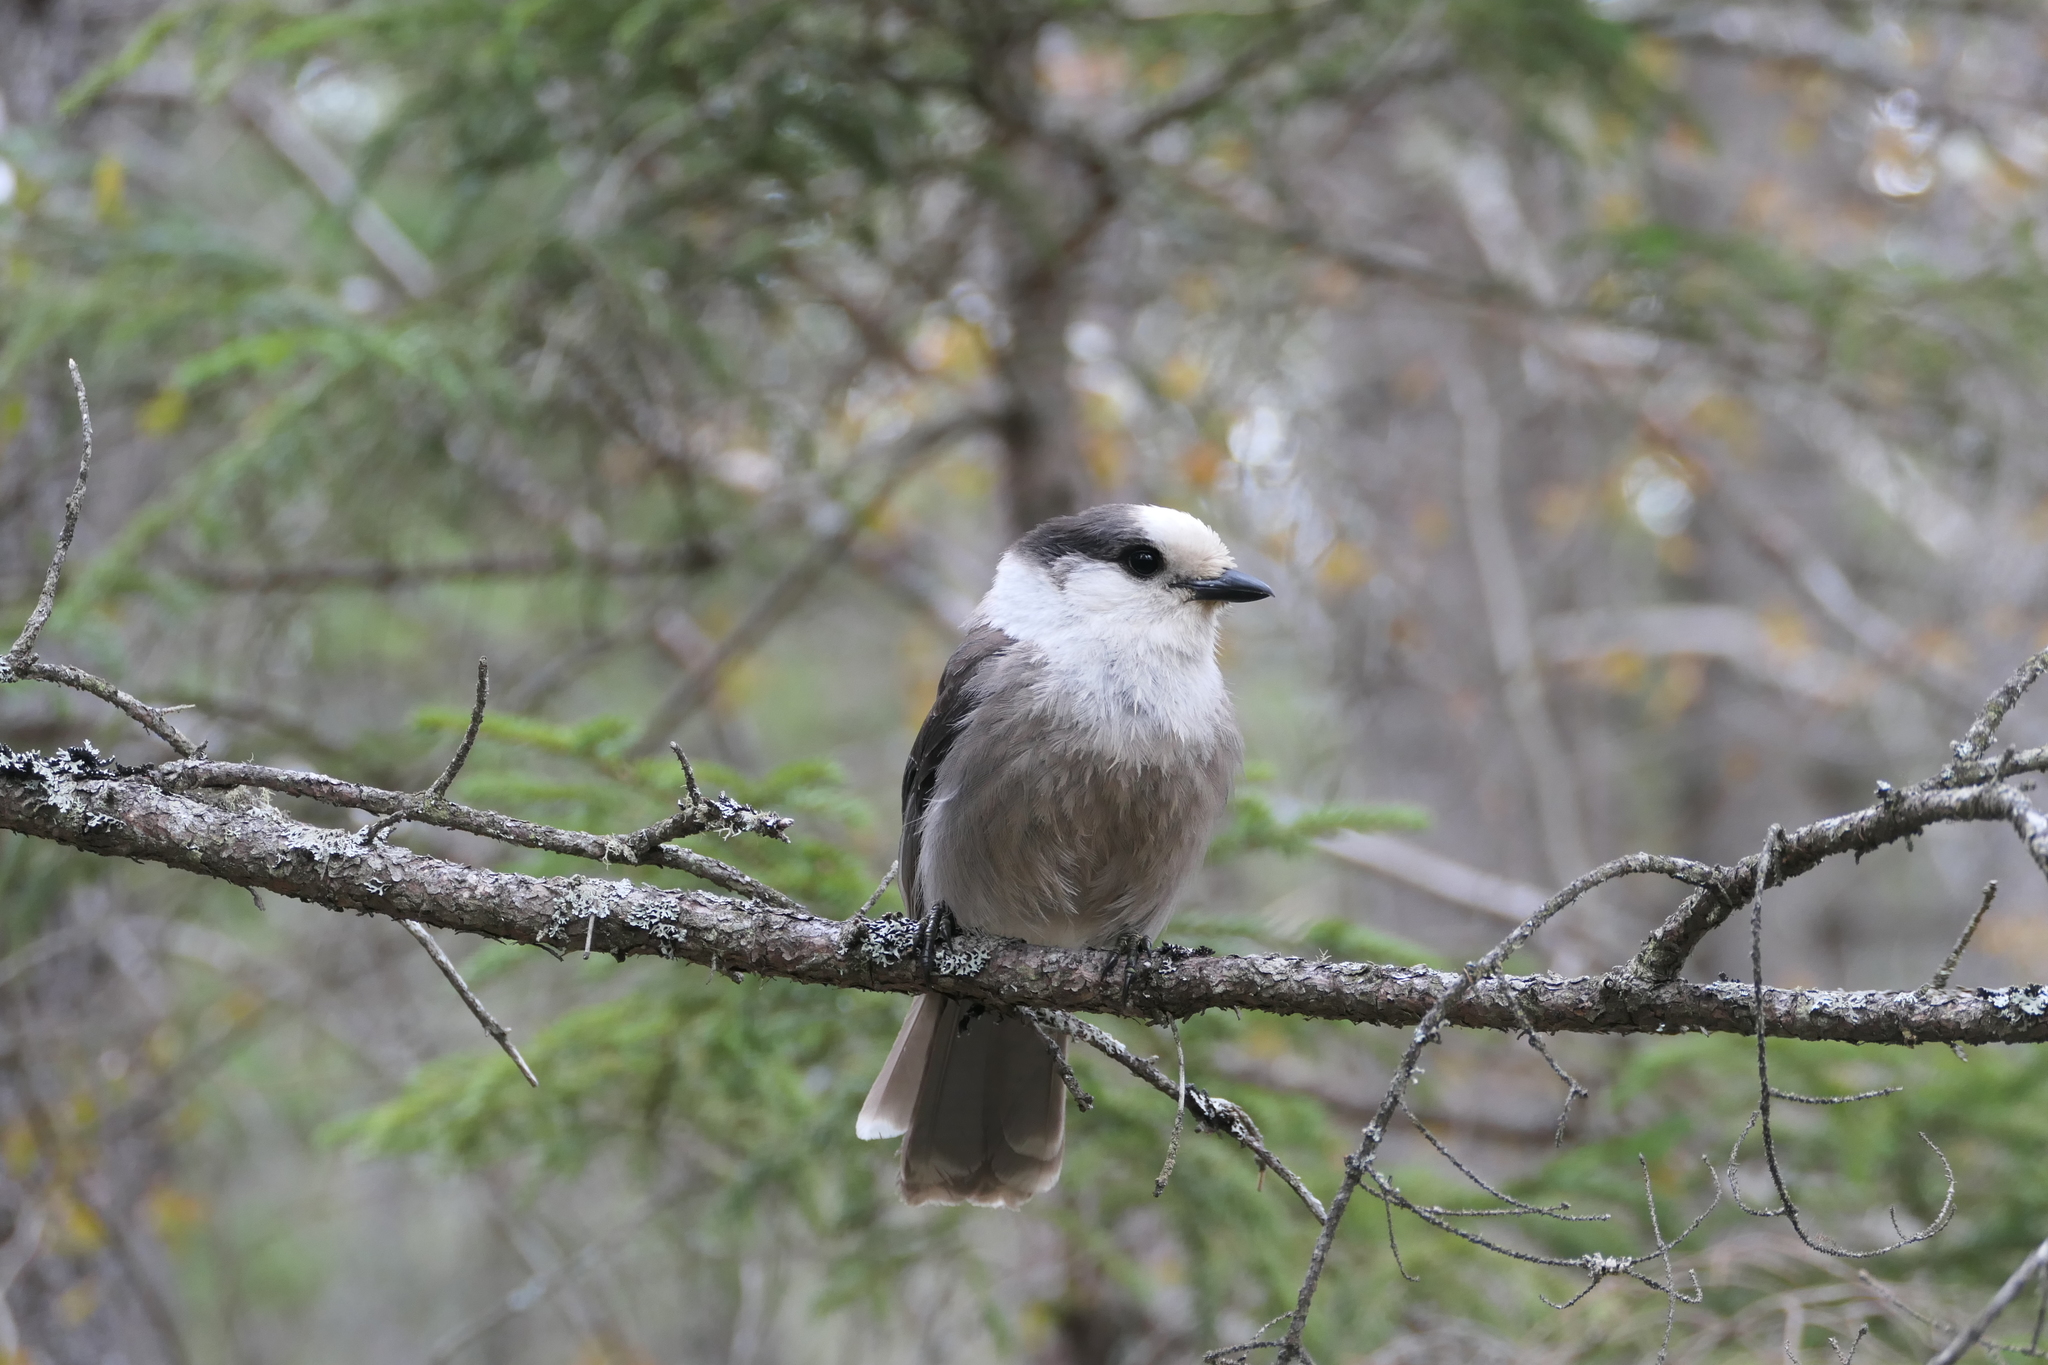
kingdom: Animalia
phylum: Chordata
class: Aves
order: Passeriformes
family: Corvidae
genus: Perisoreus
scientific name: Perisoreus canadensis
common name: Gray jay
